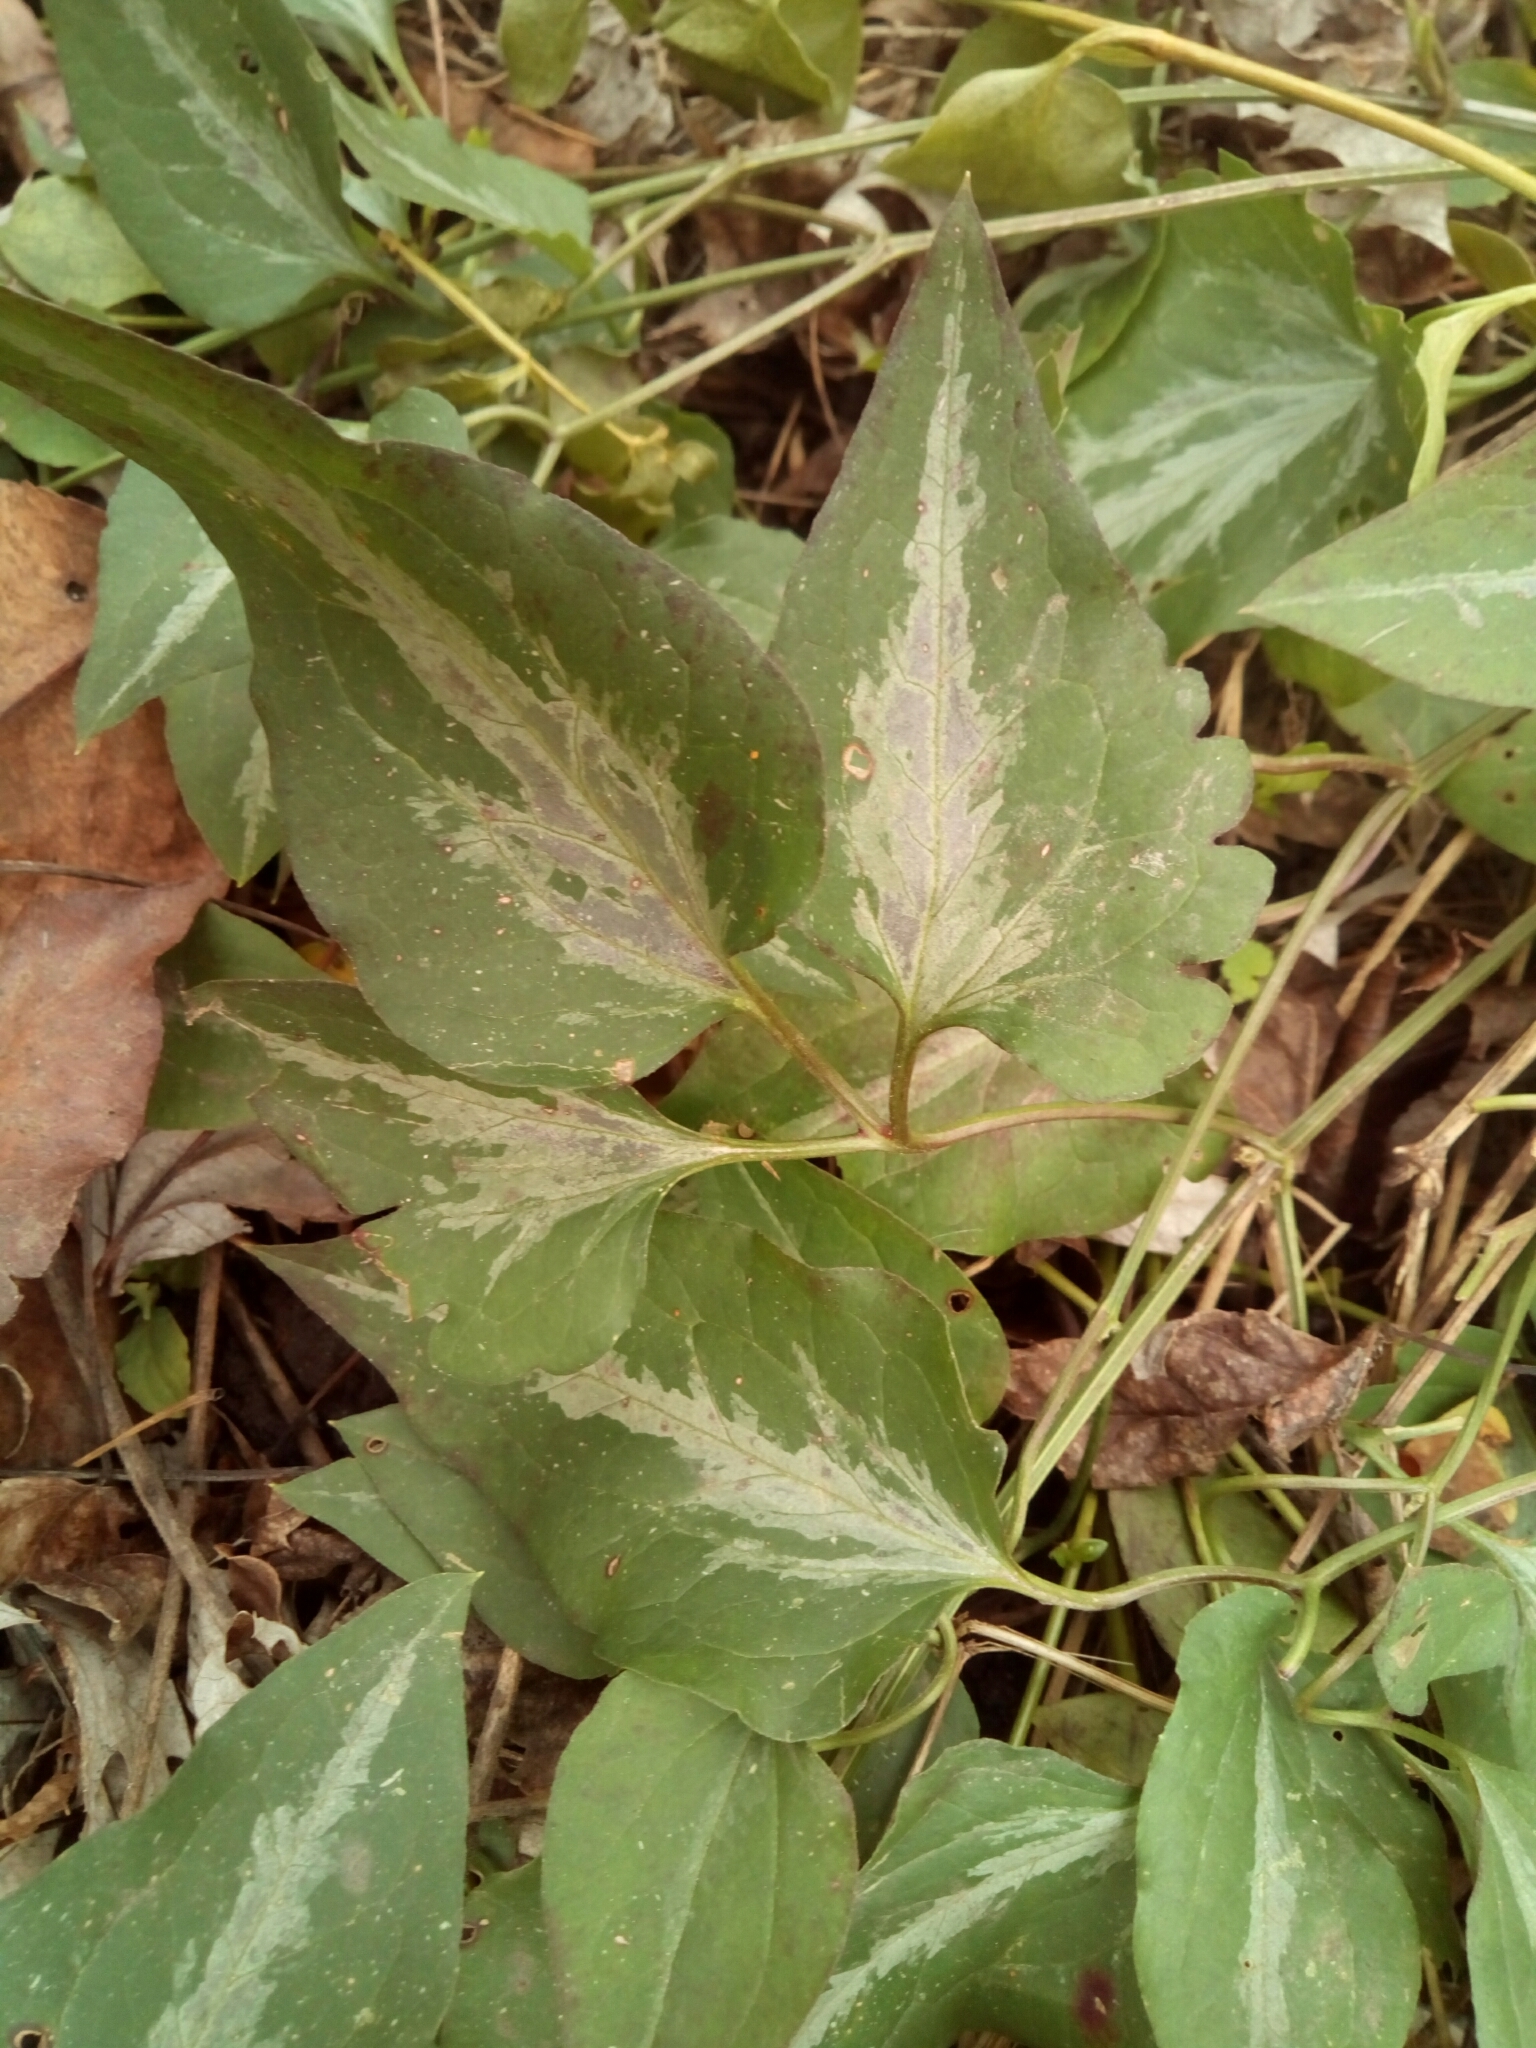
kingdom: Plantae
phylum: Tracheophyta
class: Magnoliopsida
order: Ranunculales
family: Ranunculaceae
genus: Clematis
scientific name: Clematis terniflora
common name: Sweet autumn clematis
